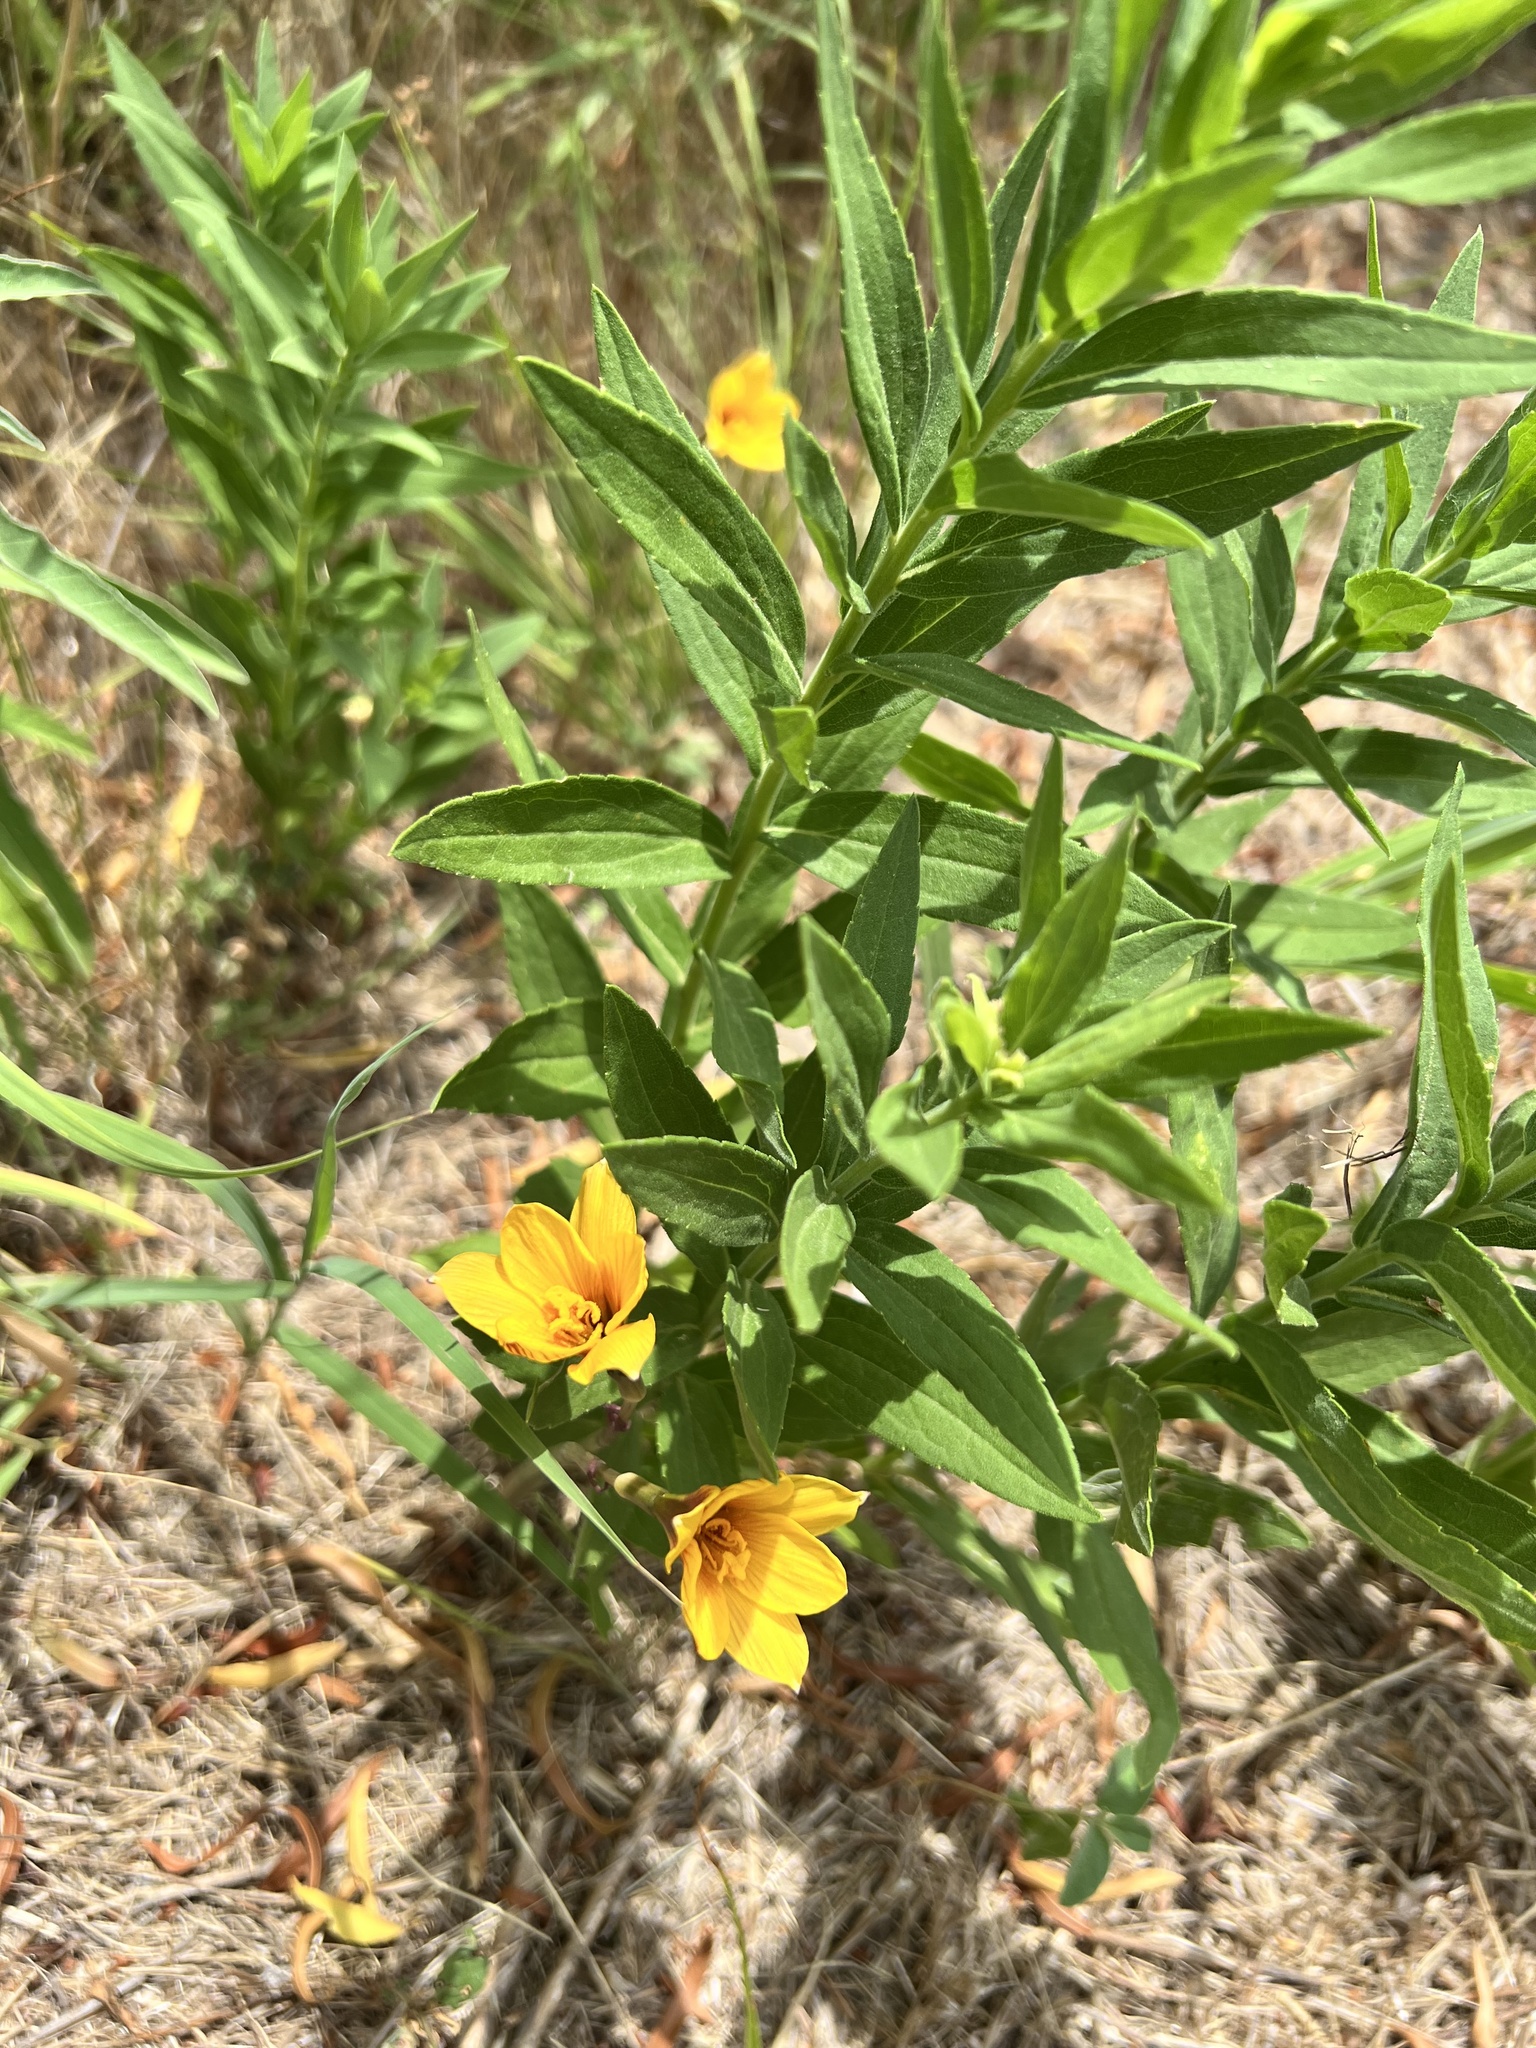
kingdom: Plantae
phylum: Tracheophyta
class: Liliopsida
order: Asparagales
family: Amaryllidaceae
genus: Zephyranthes
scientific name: Zephyranthes tubispatha
